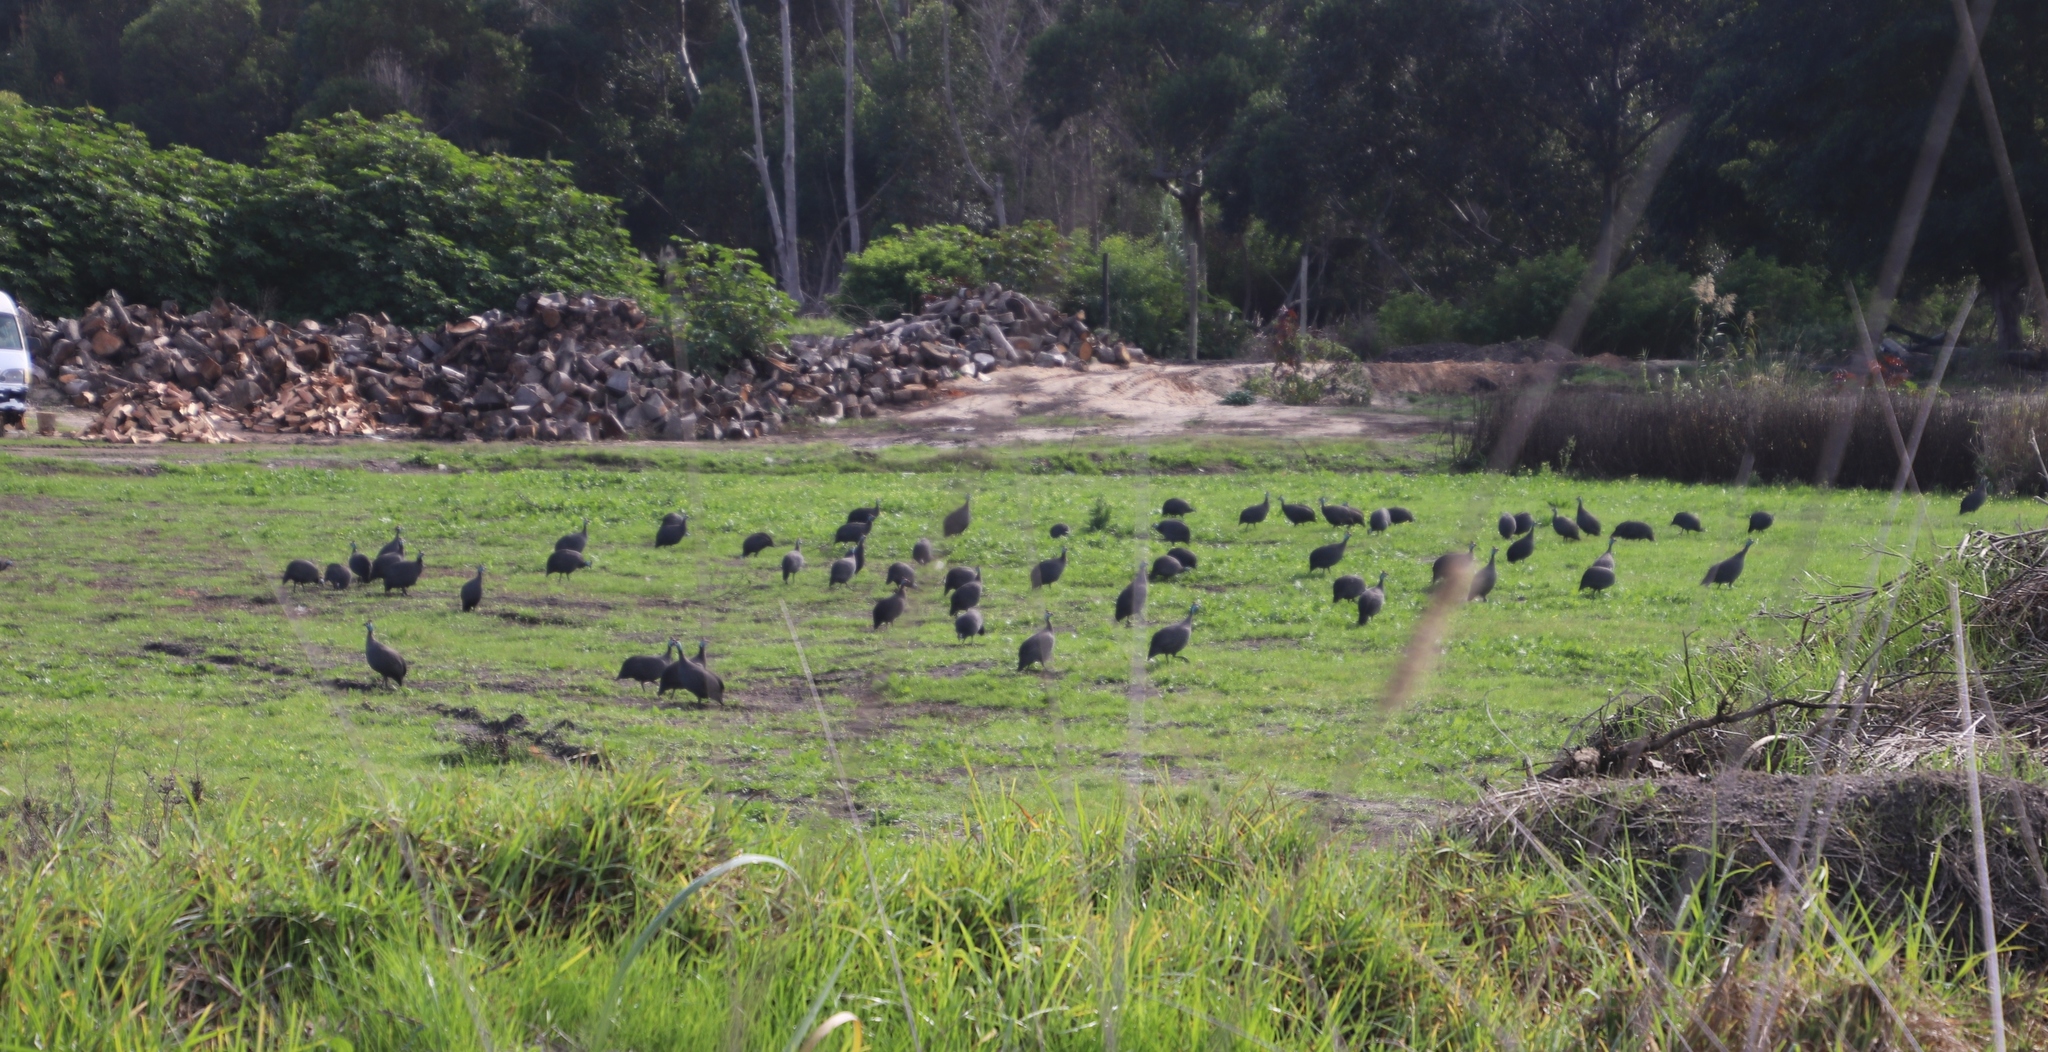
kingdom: Animalia
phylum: Chordata
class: Aves
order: Galliformes
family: Numididae
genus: Numida
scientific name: Numida meleagris
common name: Helmeted guineafowl
